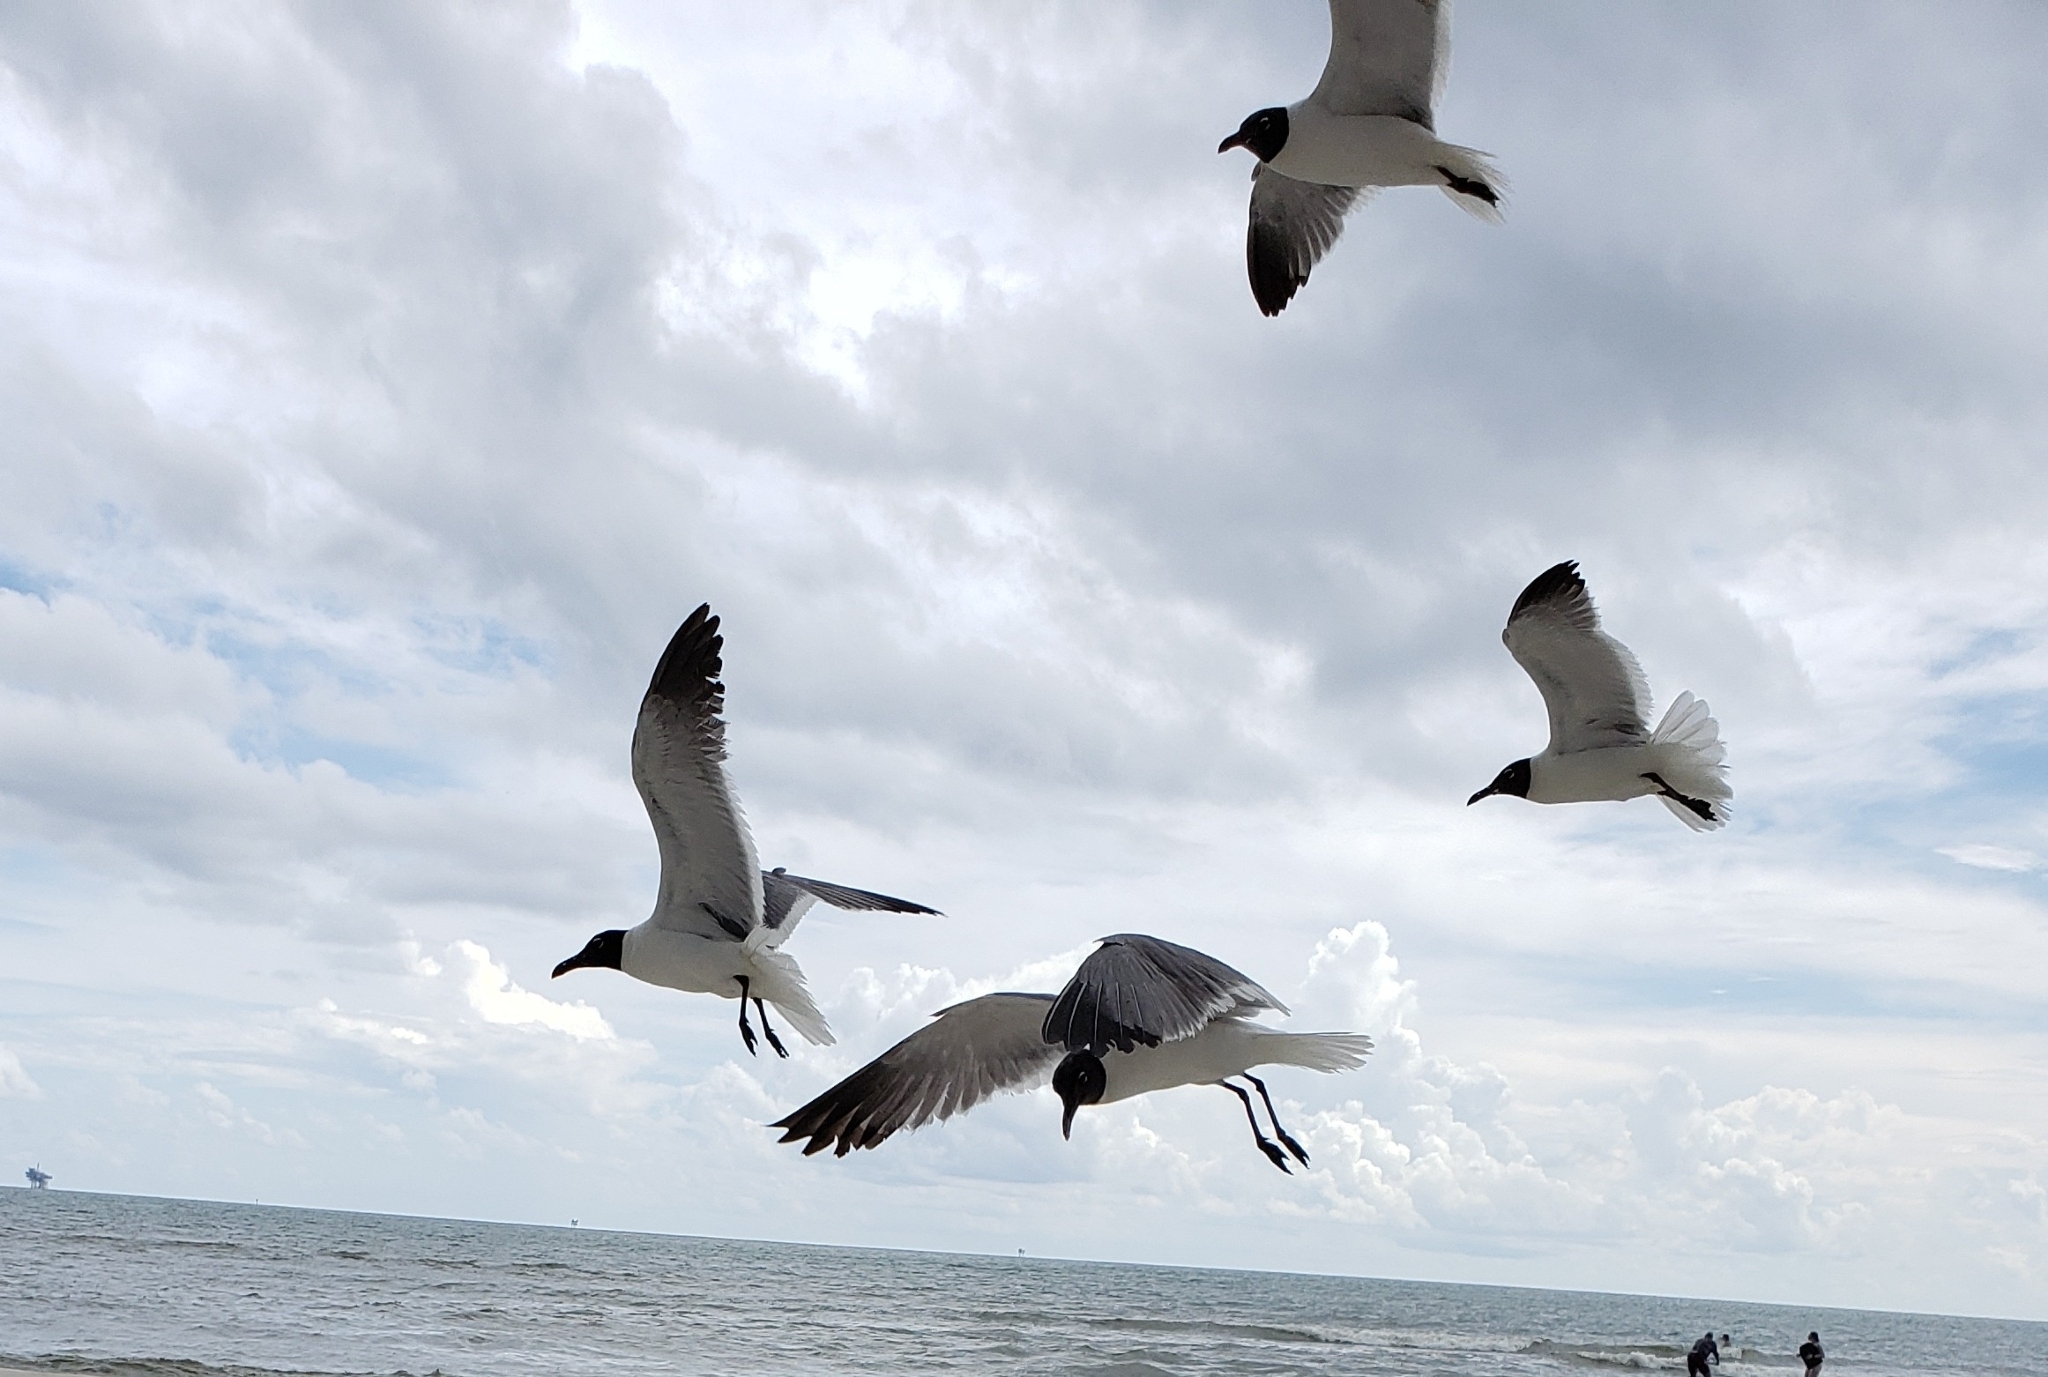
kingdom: Animalia
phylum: Chordata
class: Aves
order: Charadriiformes
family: Laridae
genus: Leucophaeus
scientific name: Leucophaeus atricilla
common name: Laughing gull
